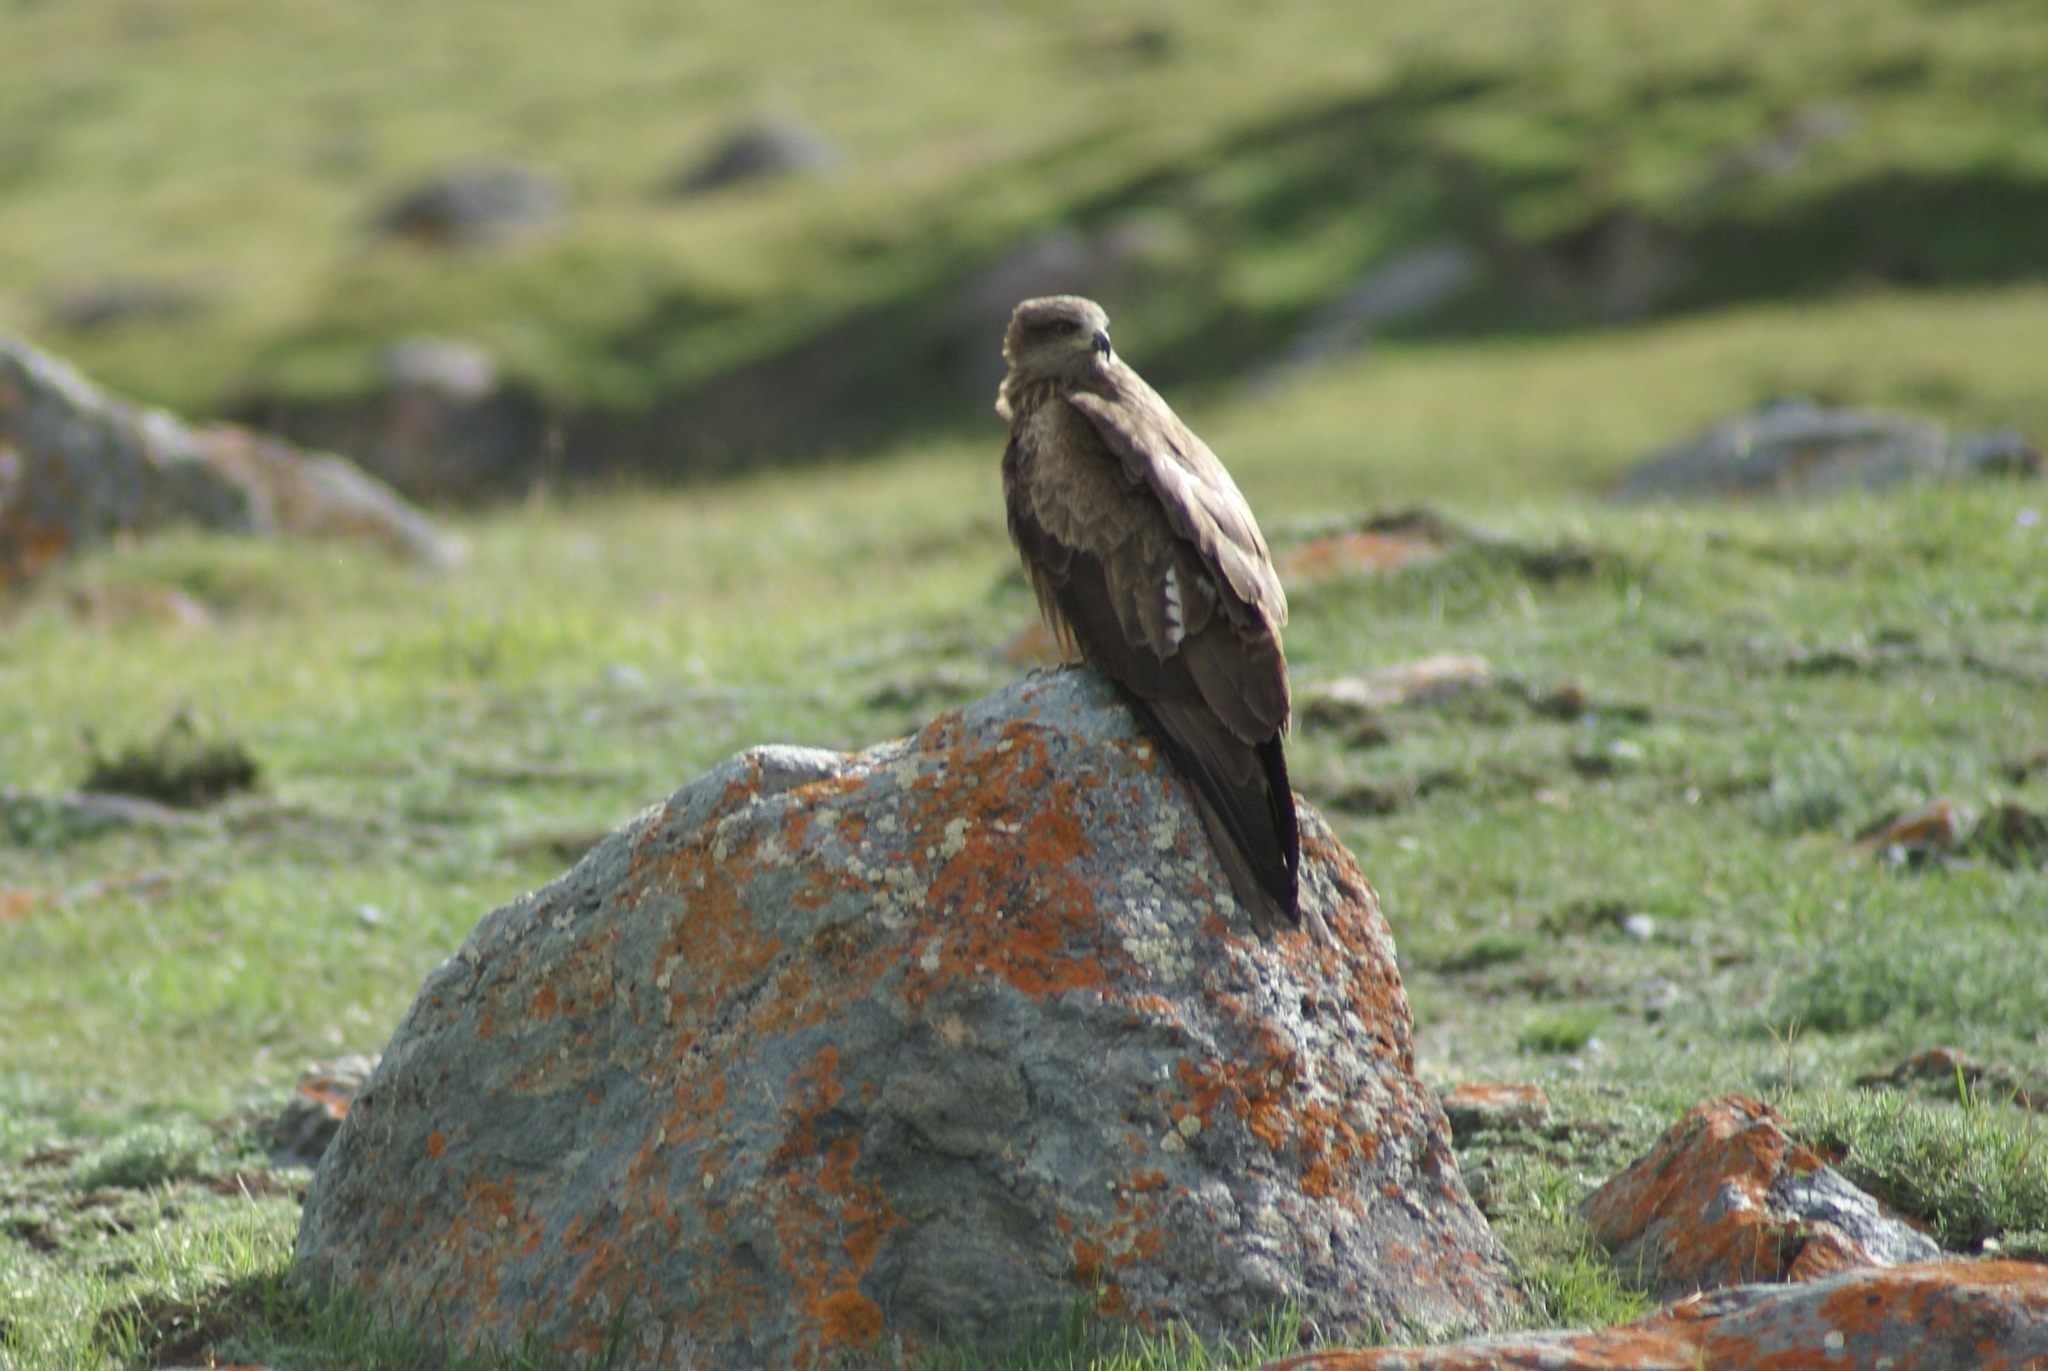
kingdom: Animalia
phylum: Chordata
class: Aves
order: Accipitriformes
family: Accipitridae
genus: Milvus
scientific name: Milvus migrans
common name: Black kite
